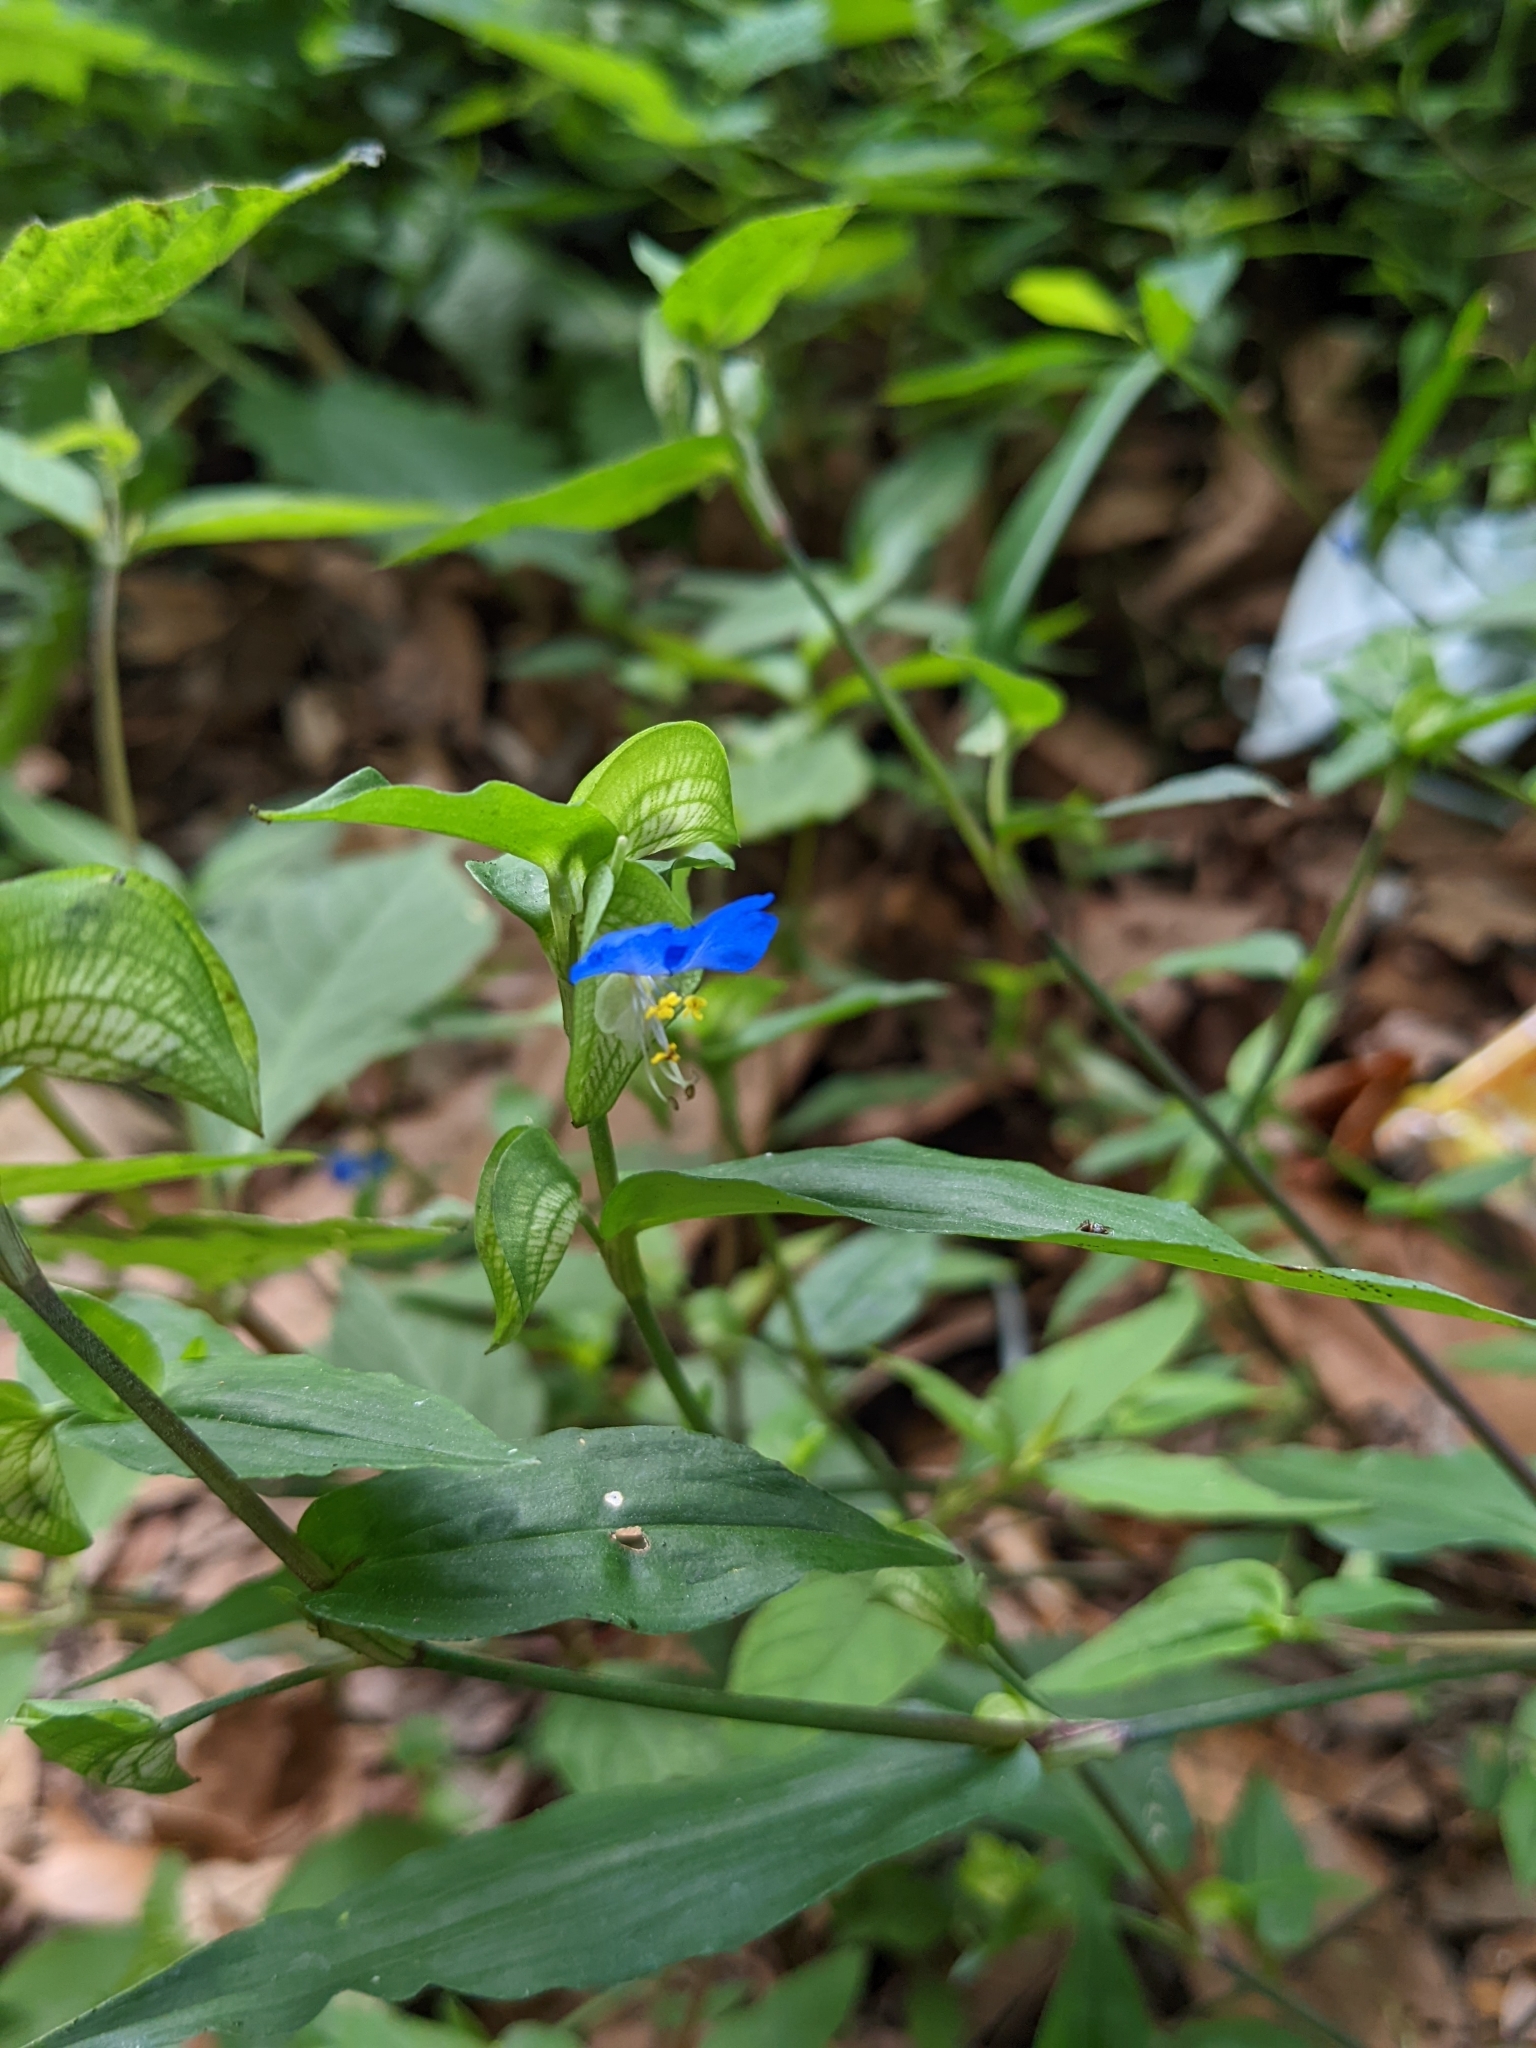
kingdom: Plantae
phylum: Tracheophyta
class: Liliopsida
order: Commelinales
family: Commelinaceae
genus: Commelina
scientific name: Commelina communis
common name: Asiatic dayflower
